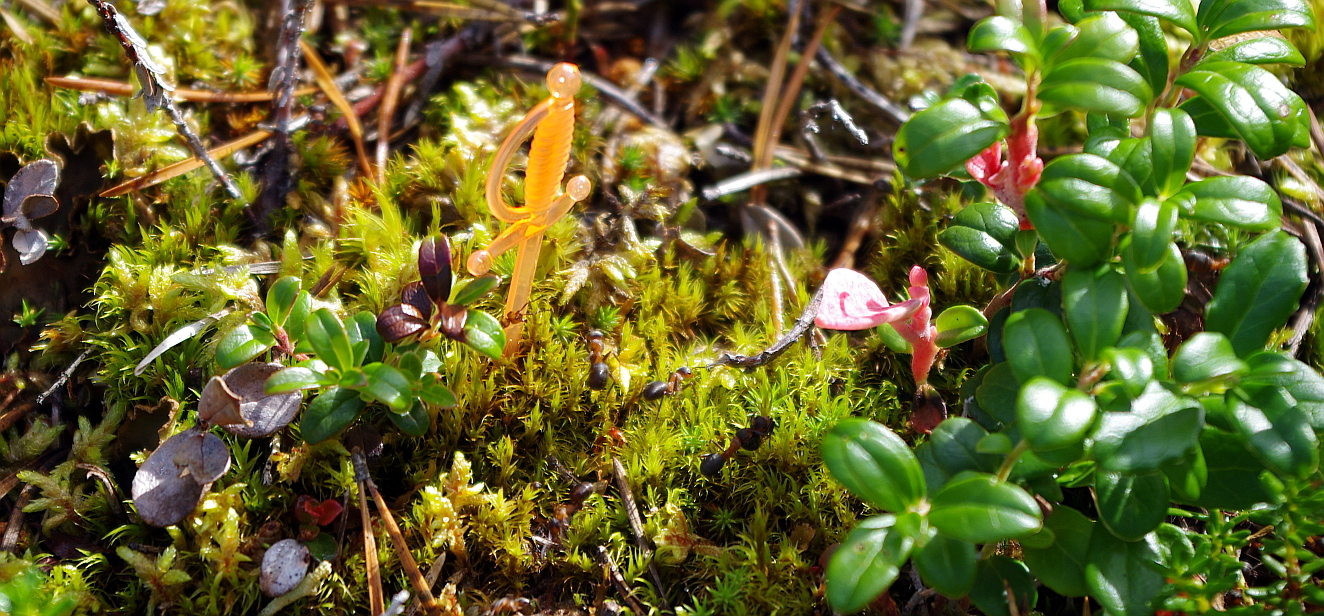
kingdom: Animalia
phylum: Arthropoda
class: Insecta
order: Hymenoptera
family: Formicidae
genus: Formica
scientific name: Formica
